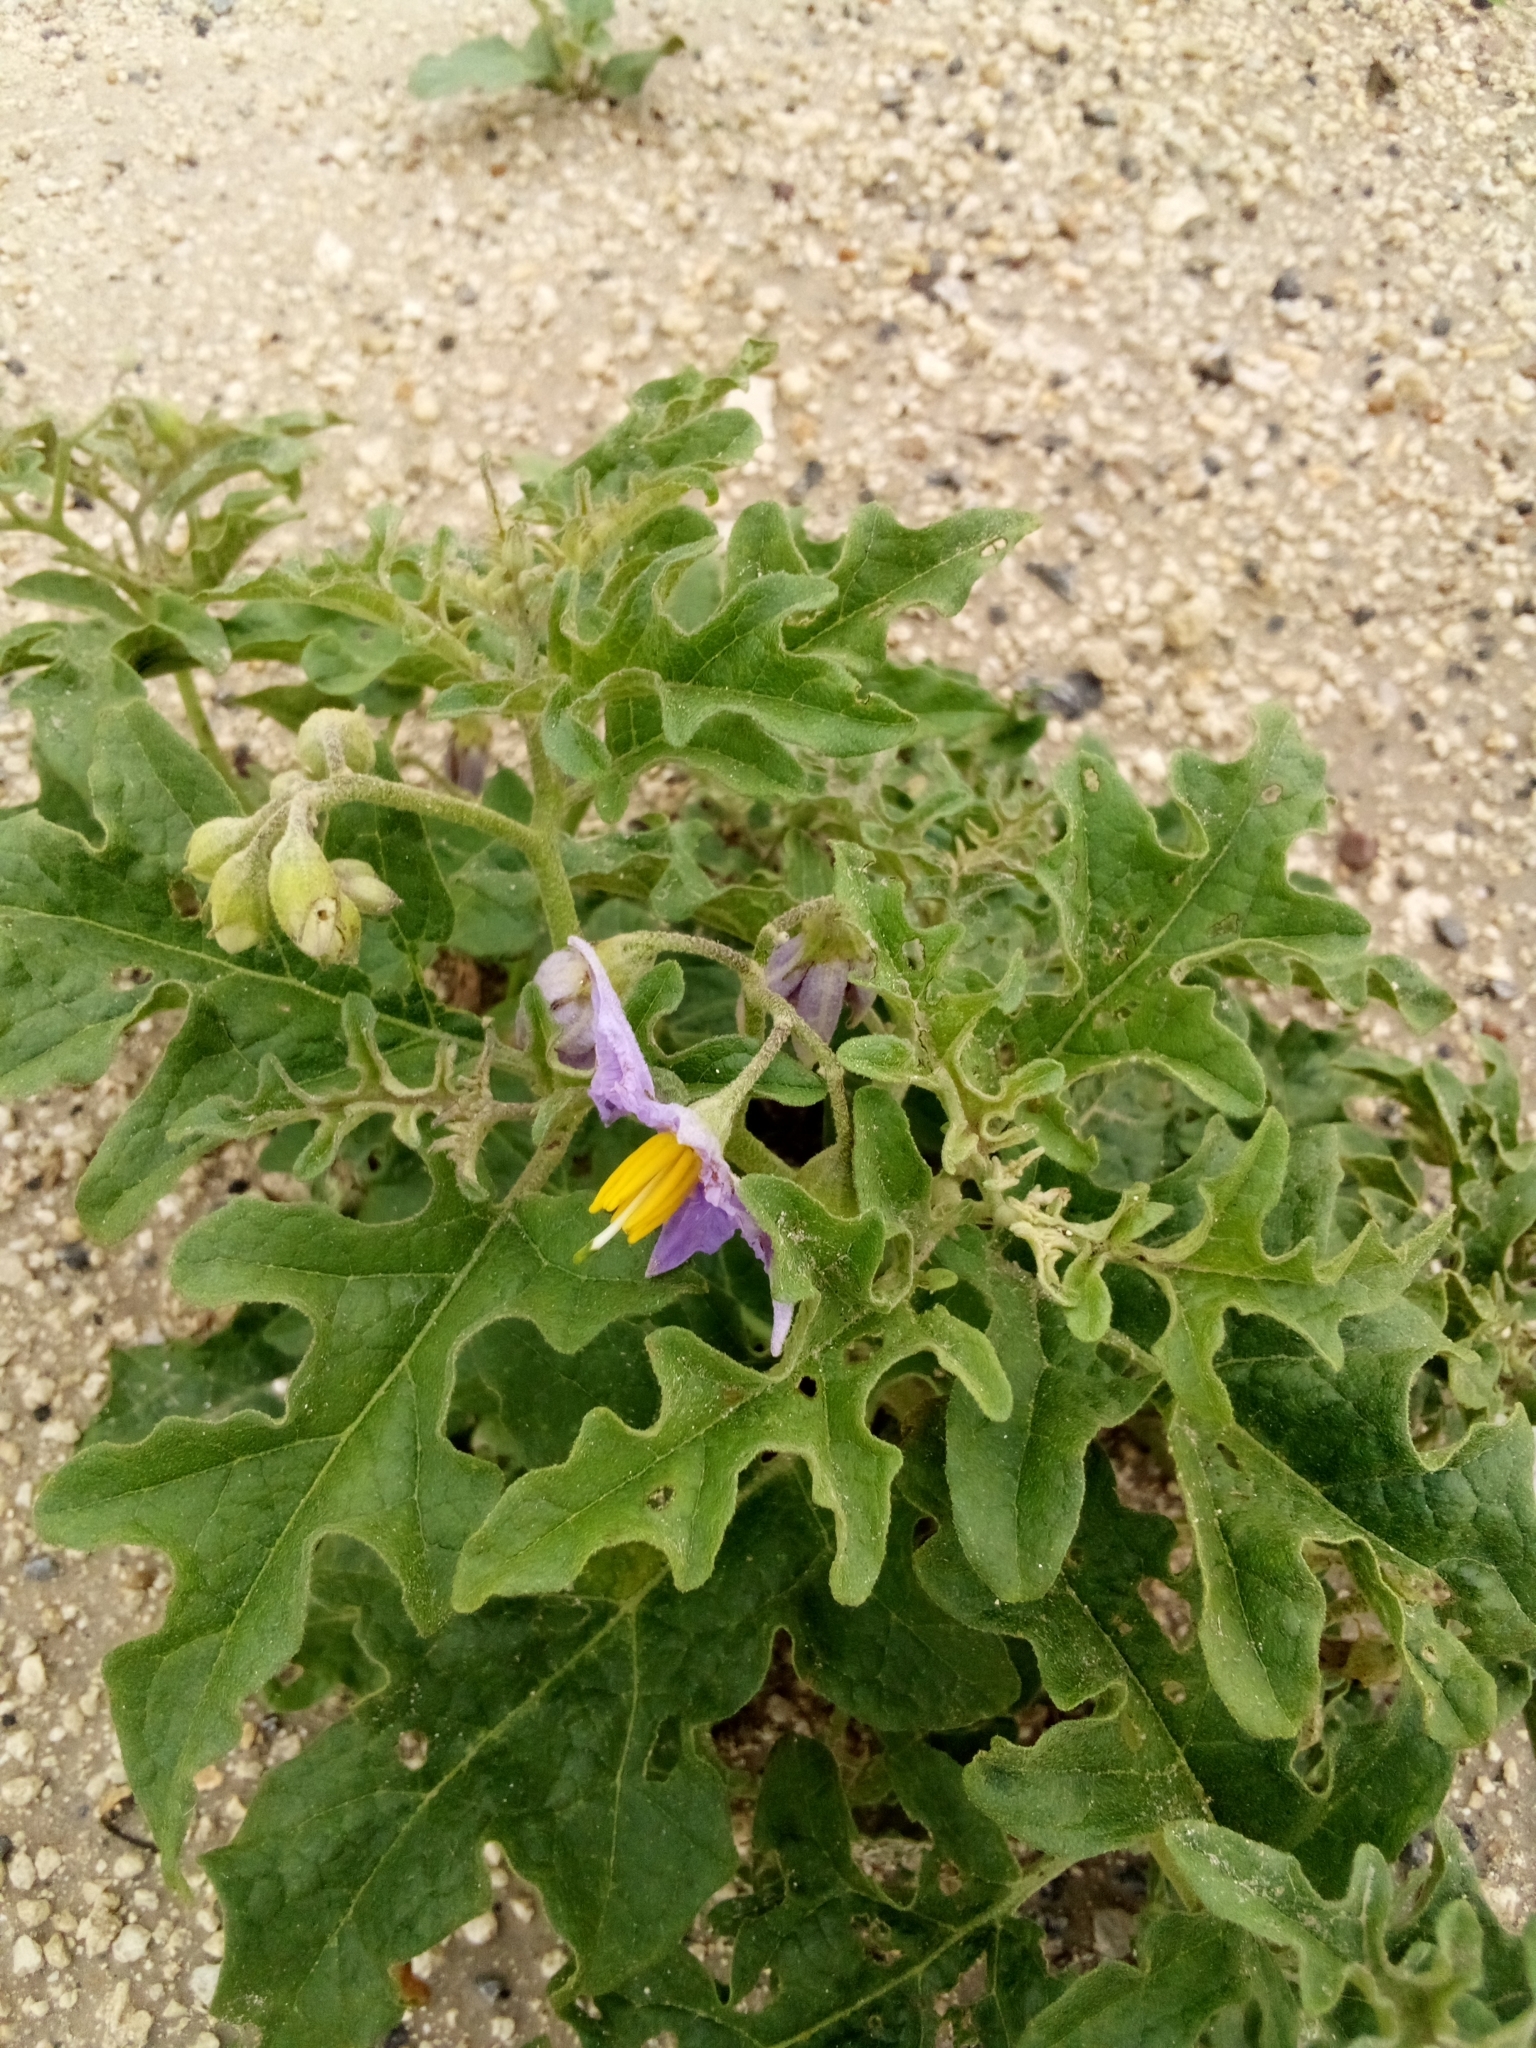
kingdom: Plantae
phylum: Tracheophyta
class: Magnoliopsida
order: Solanales
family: Solanaceae
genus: Solanum
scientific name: Solanum dimidiatum
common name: Carolina horse-nettle
